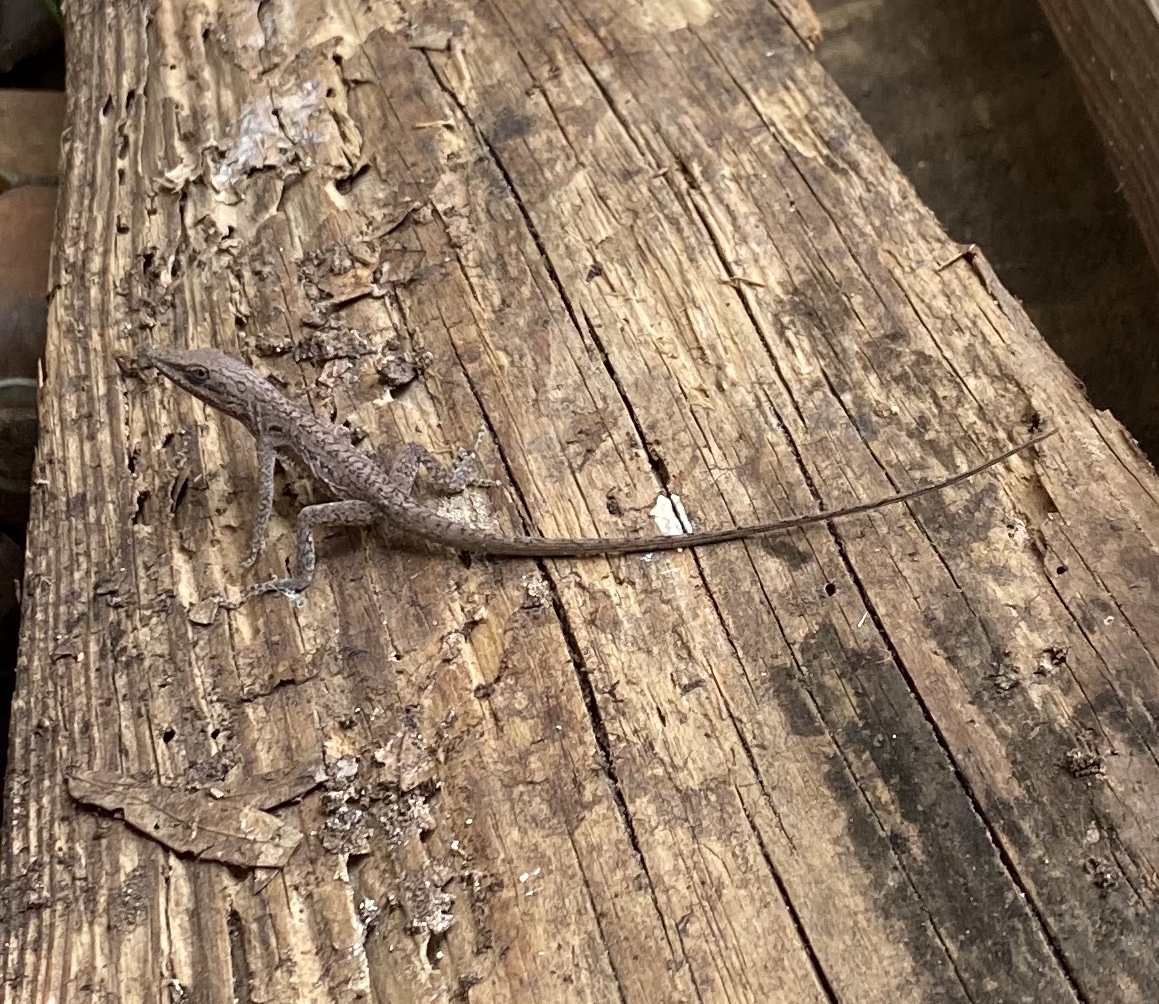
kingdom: Animalia
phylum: Chordata
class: Squamata
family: Dactyloidae
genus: Anolis
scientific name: Anolis carolinensis
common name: Green anole
